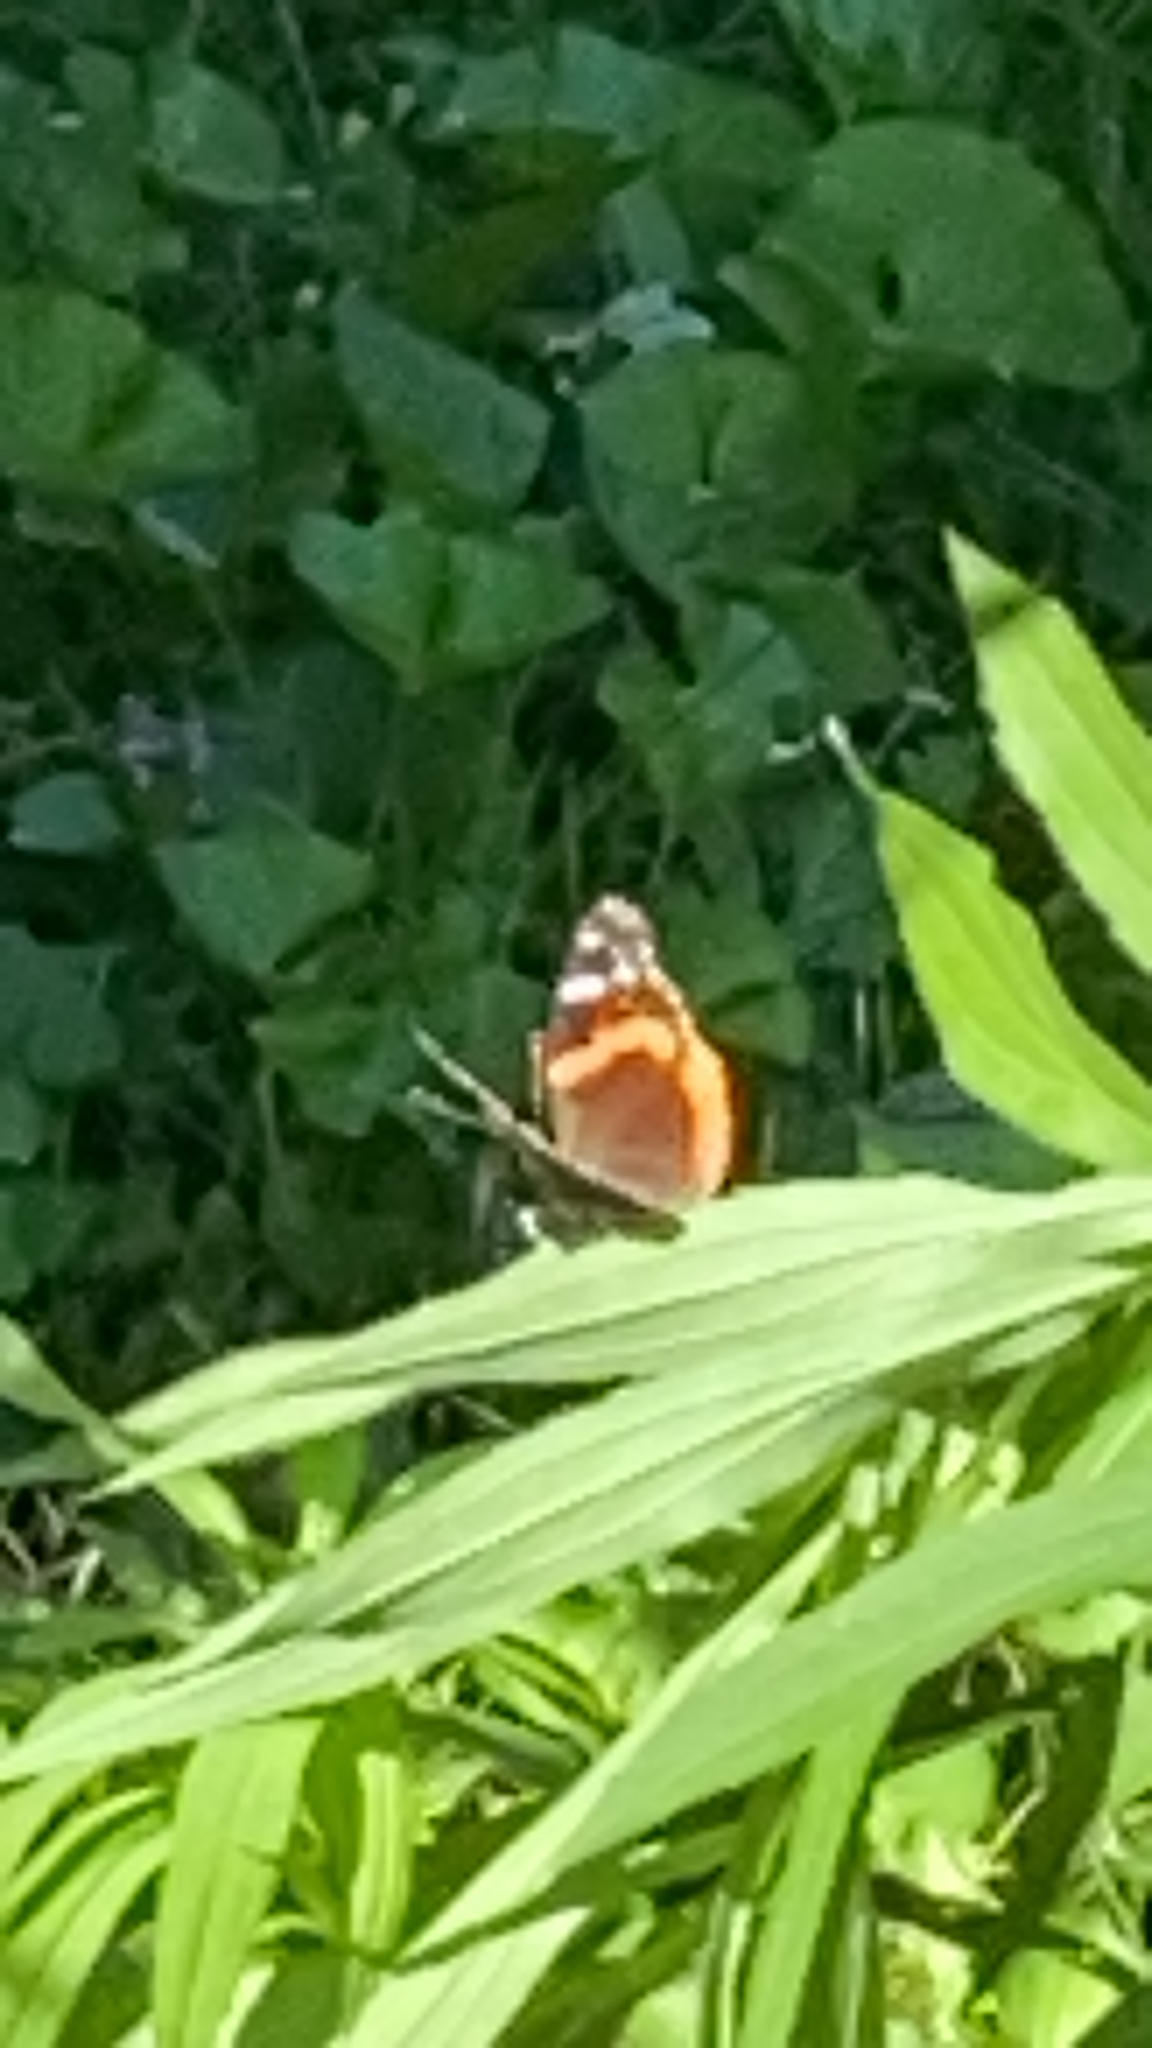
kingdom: Animalia
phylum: Arthropoda
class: Insecta
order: Lepidoptera
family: Nymphalidae
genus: Vanessa
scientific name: Vanessa atalanta
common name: Red admiral
